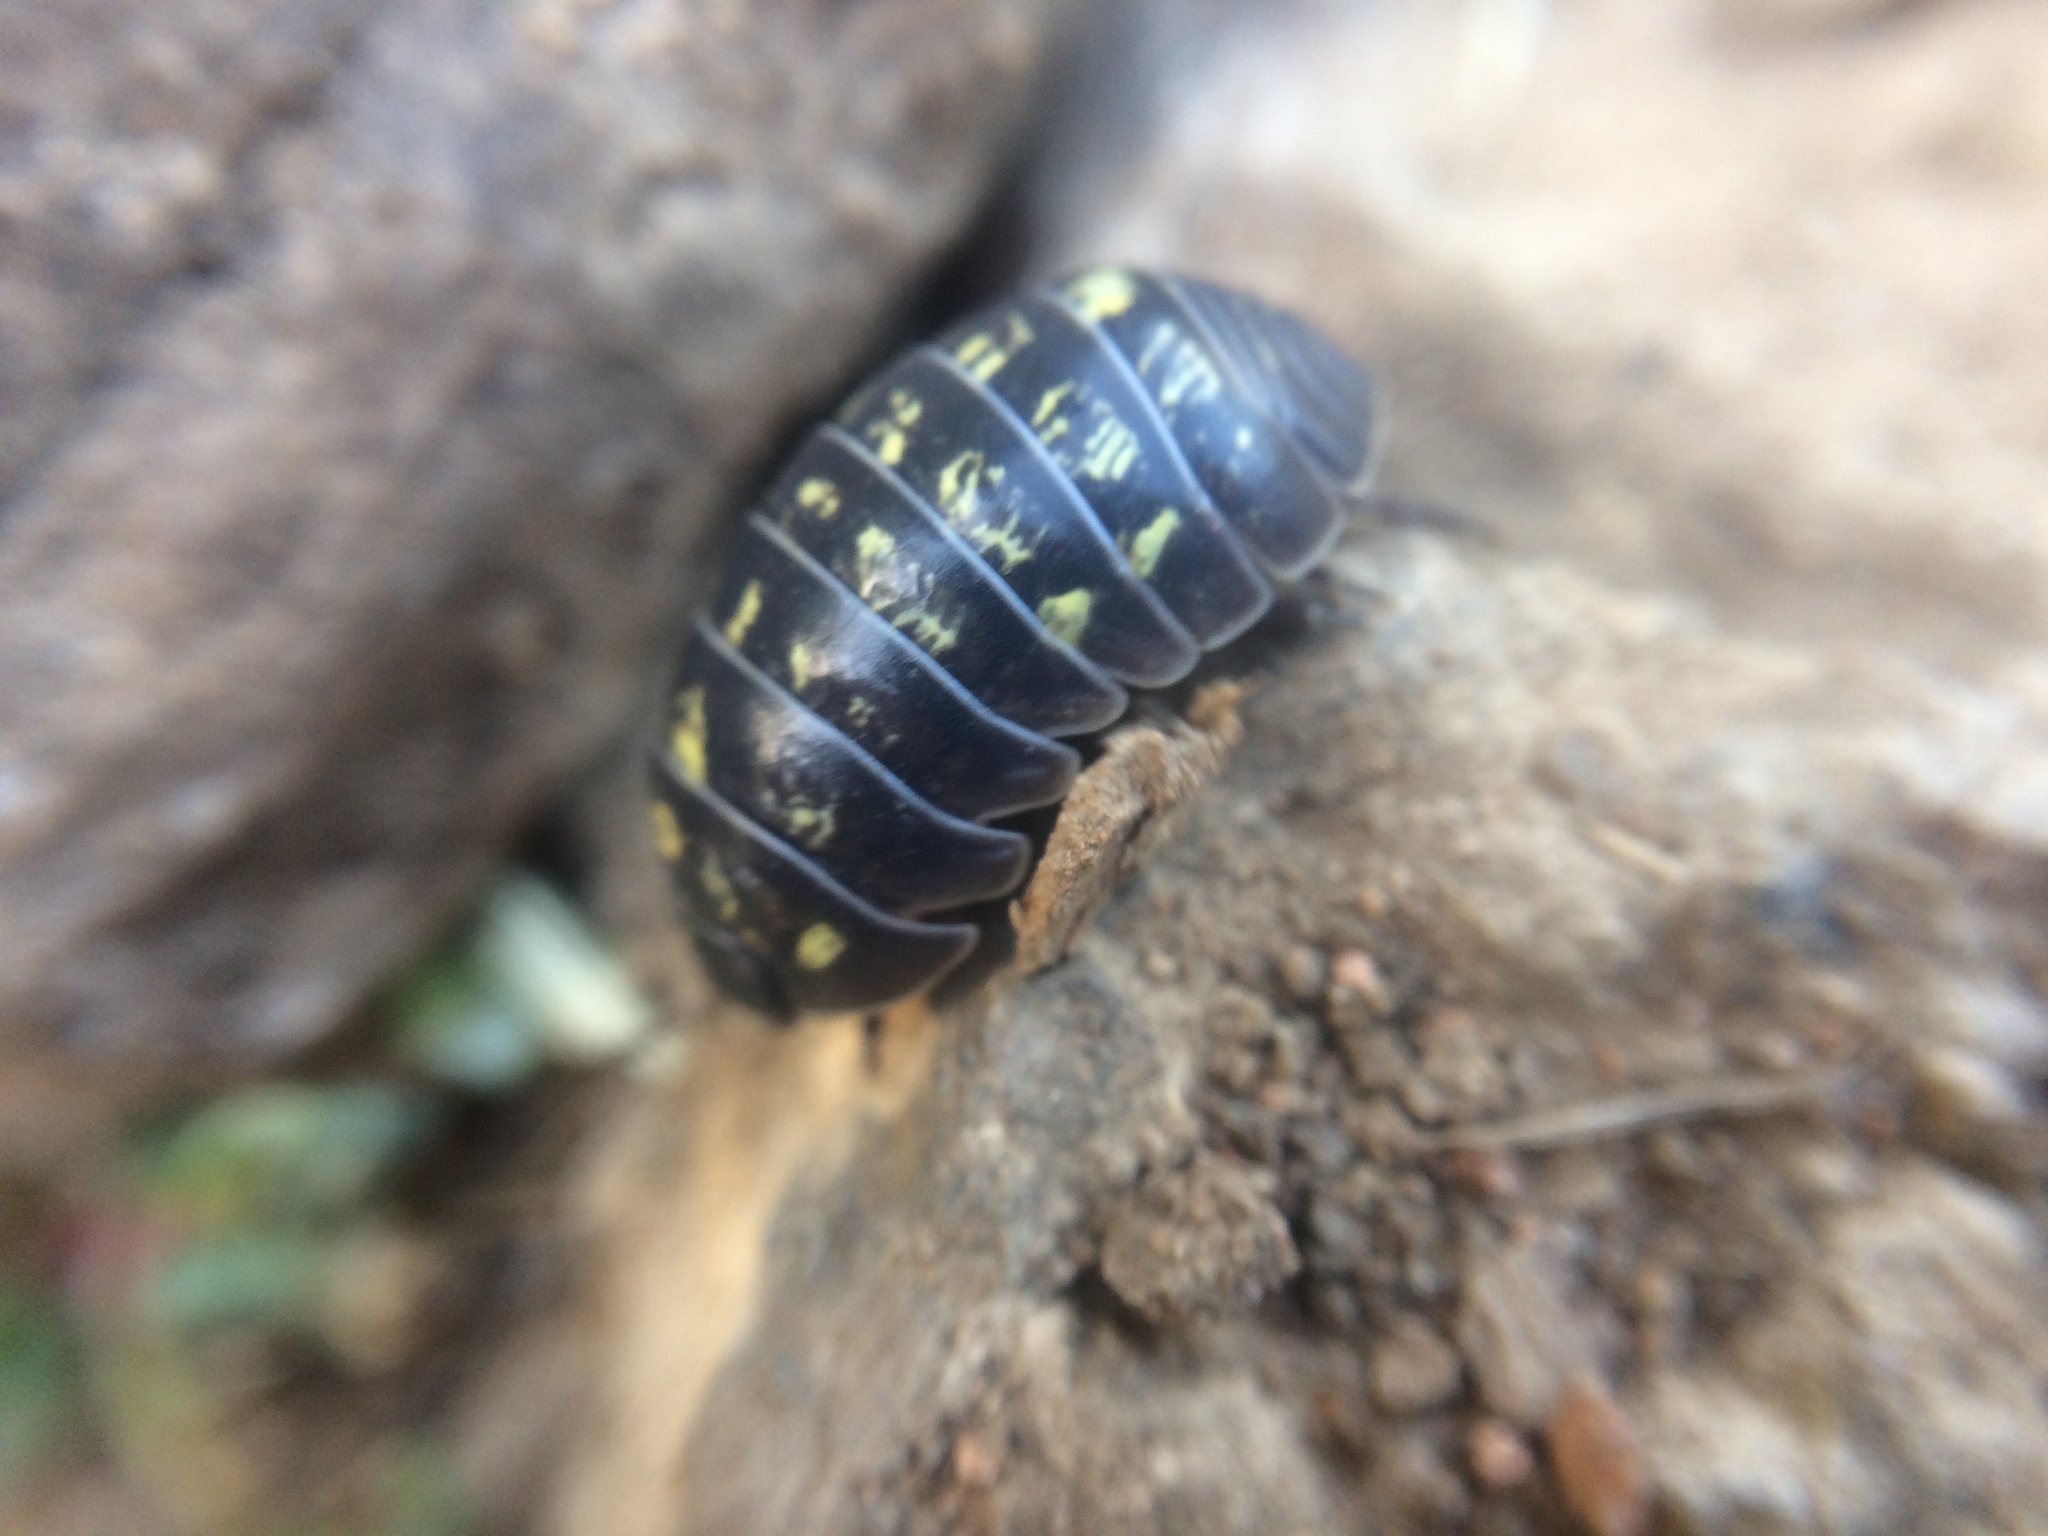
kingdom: Animalia
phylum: Arthropoda
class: Malacostraca
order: Isopoda
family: Armadillidiidae
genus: Armadillidium
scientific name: Armadillidium vulgare
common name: Common pill woodlouse
